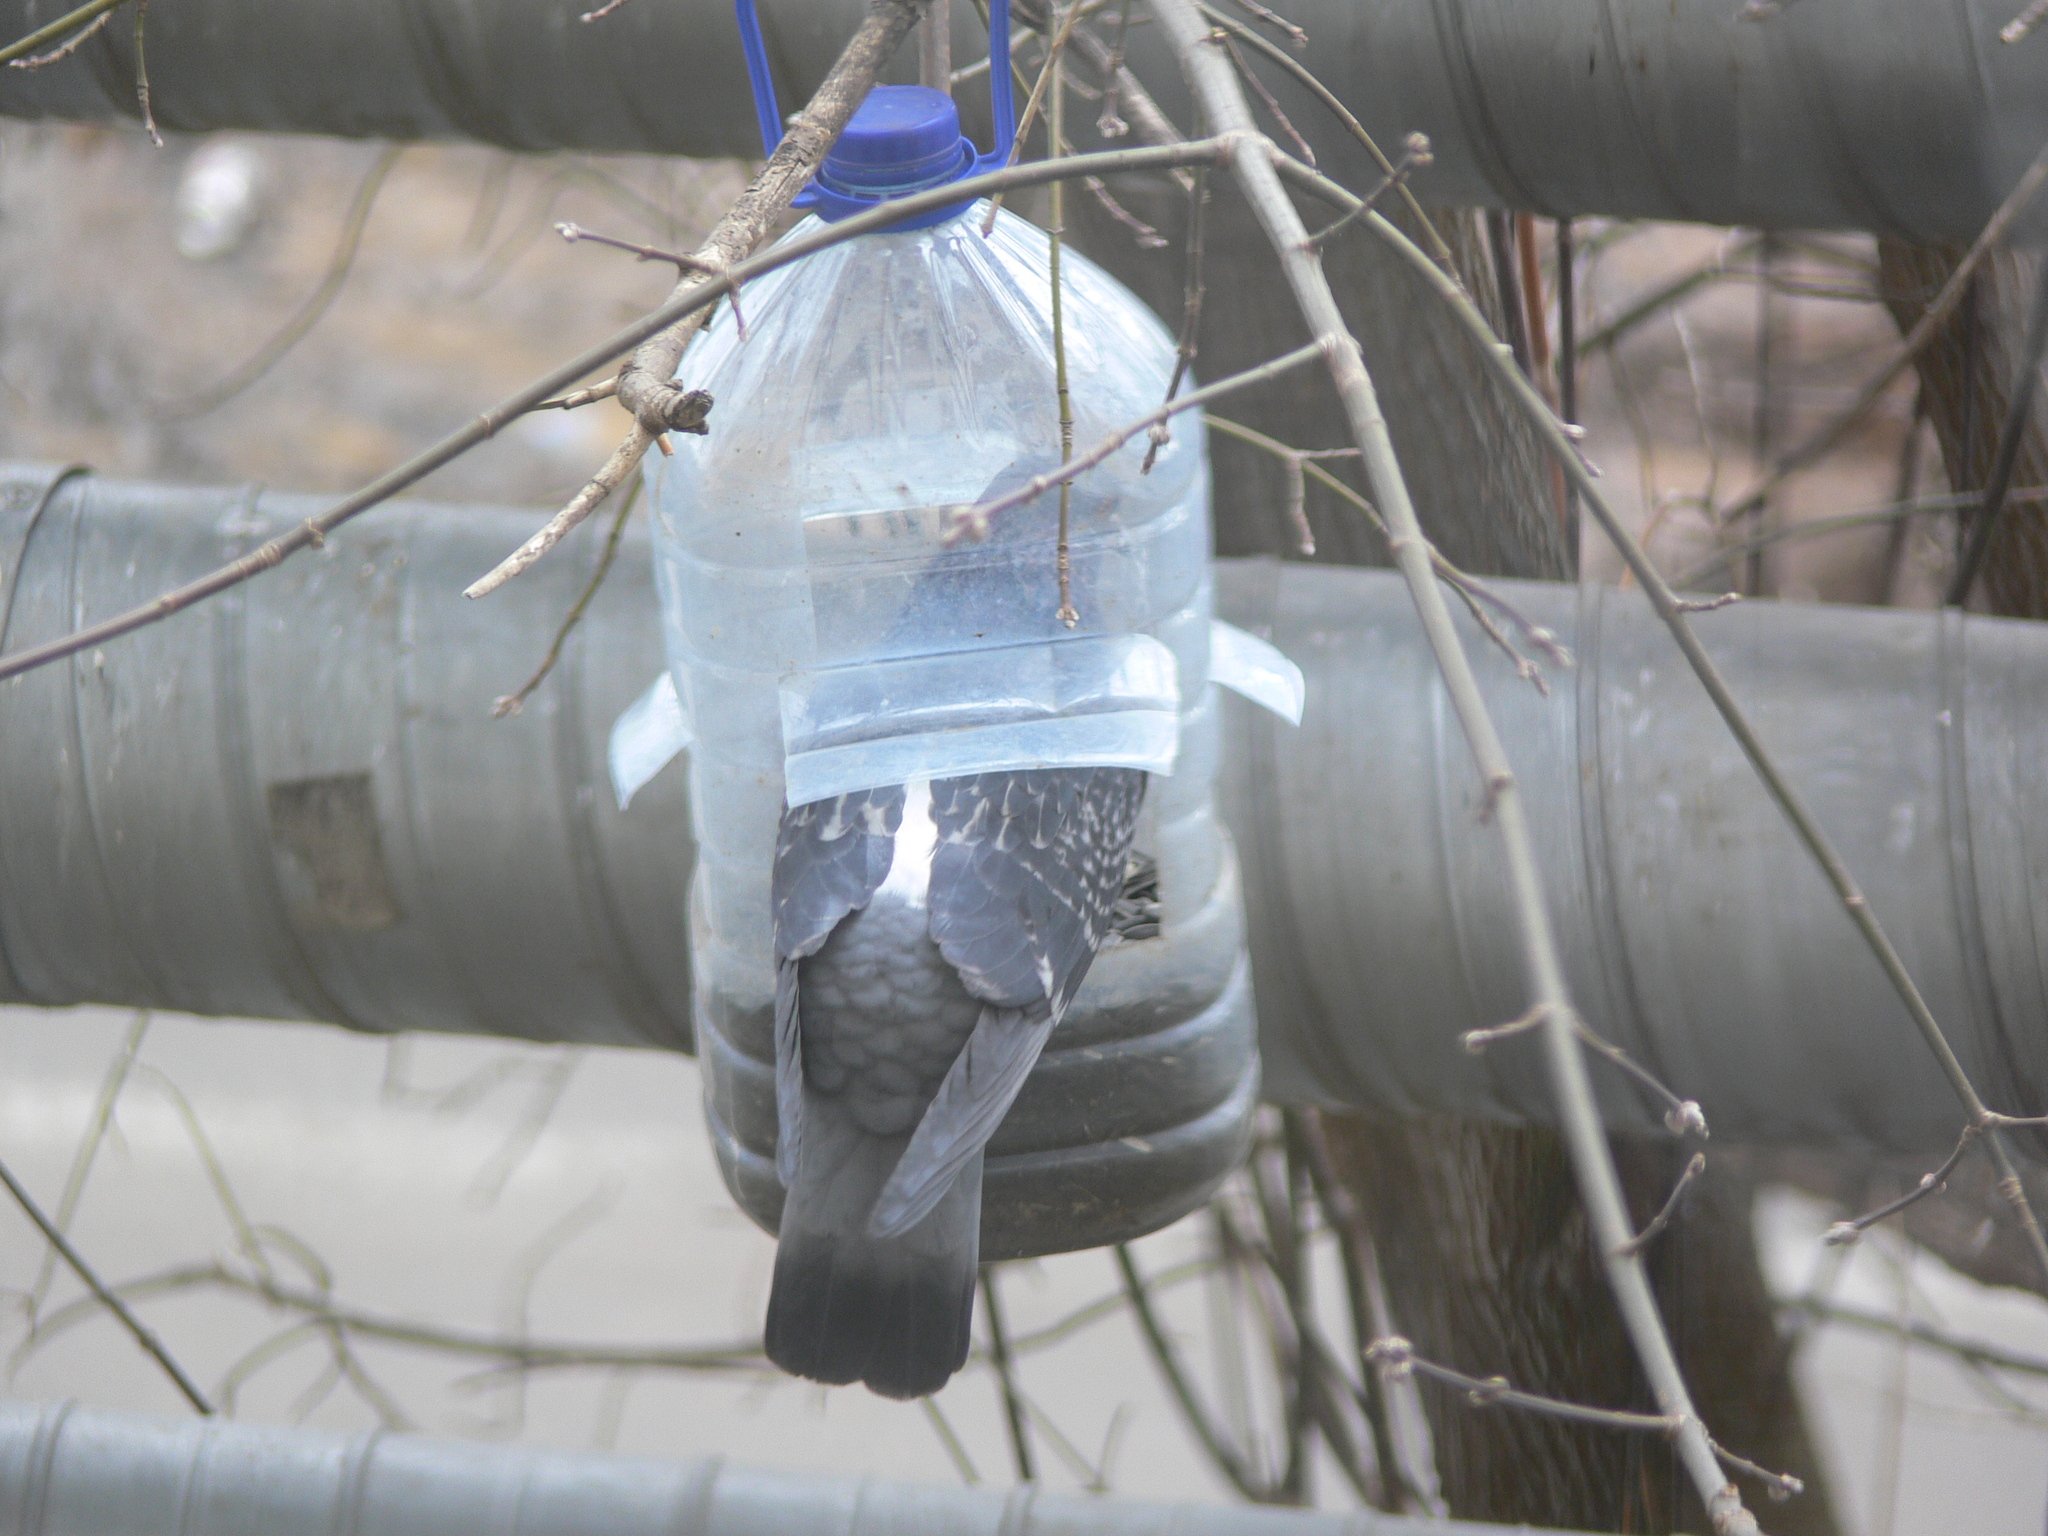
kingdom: Animalia
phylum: Chordata
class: Aves
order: Columbiformes
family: Columbidae
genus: Columba
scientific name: Columba livia
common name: Rock pigeon
